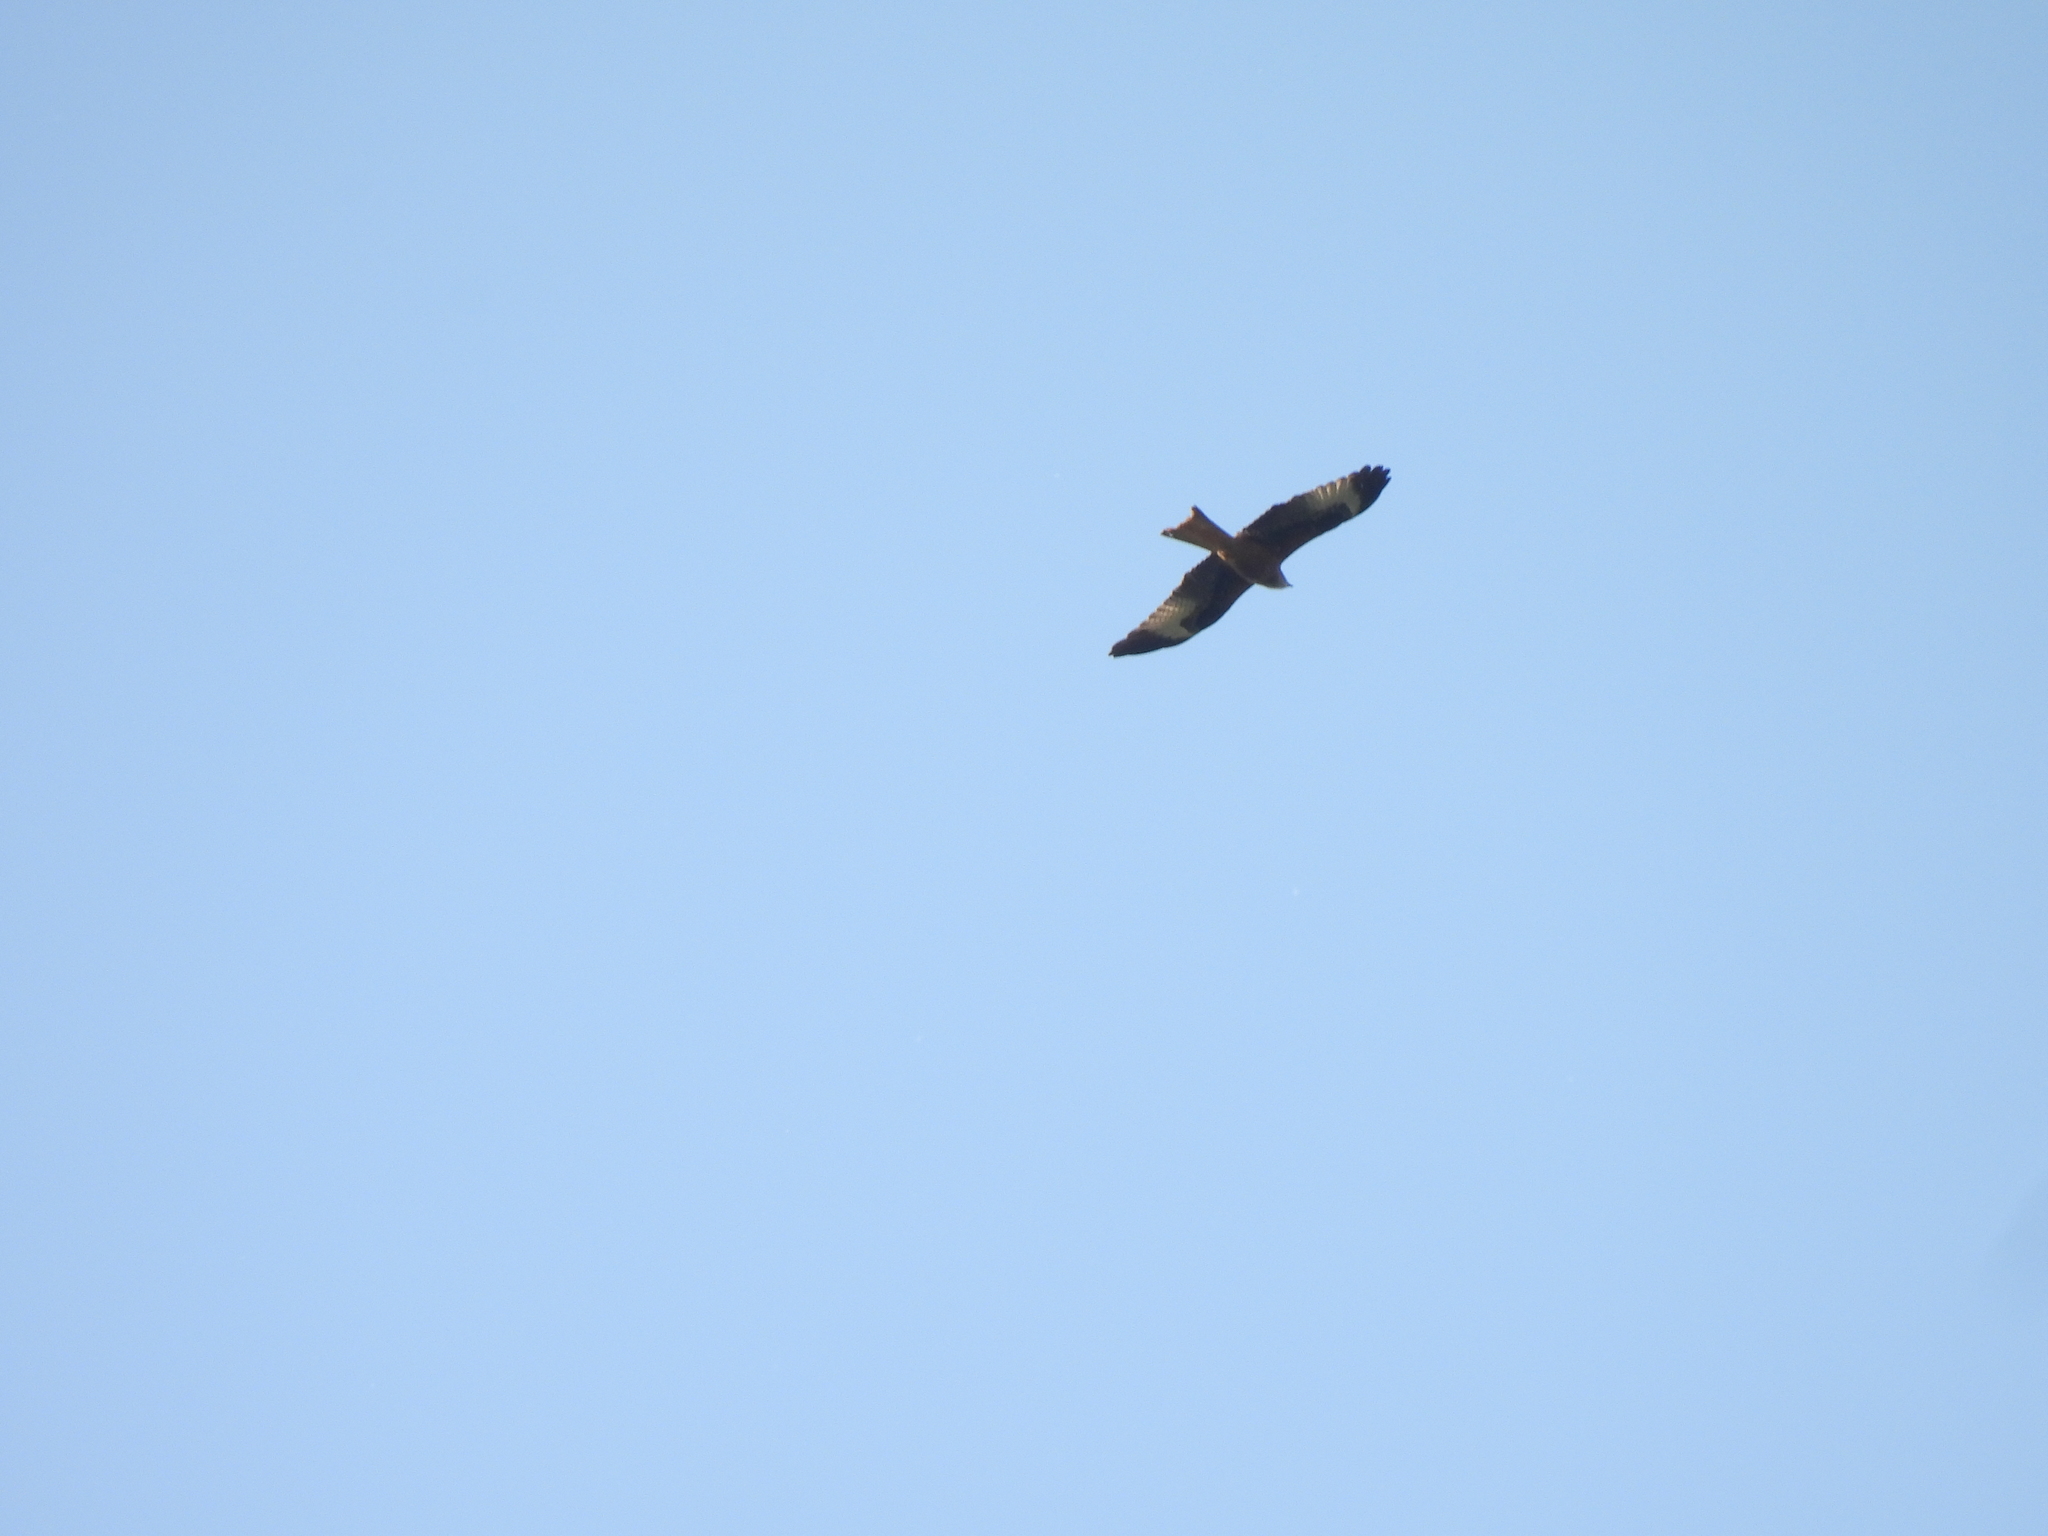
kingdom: Animalia
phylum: Chordata
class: Aves
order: Accipitriformes
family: Accipitridae
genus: Milvus
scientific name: Milvus milvus
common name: Red kite
